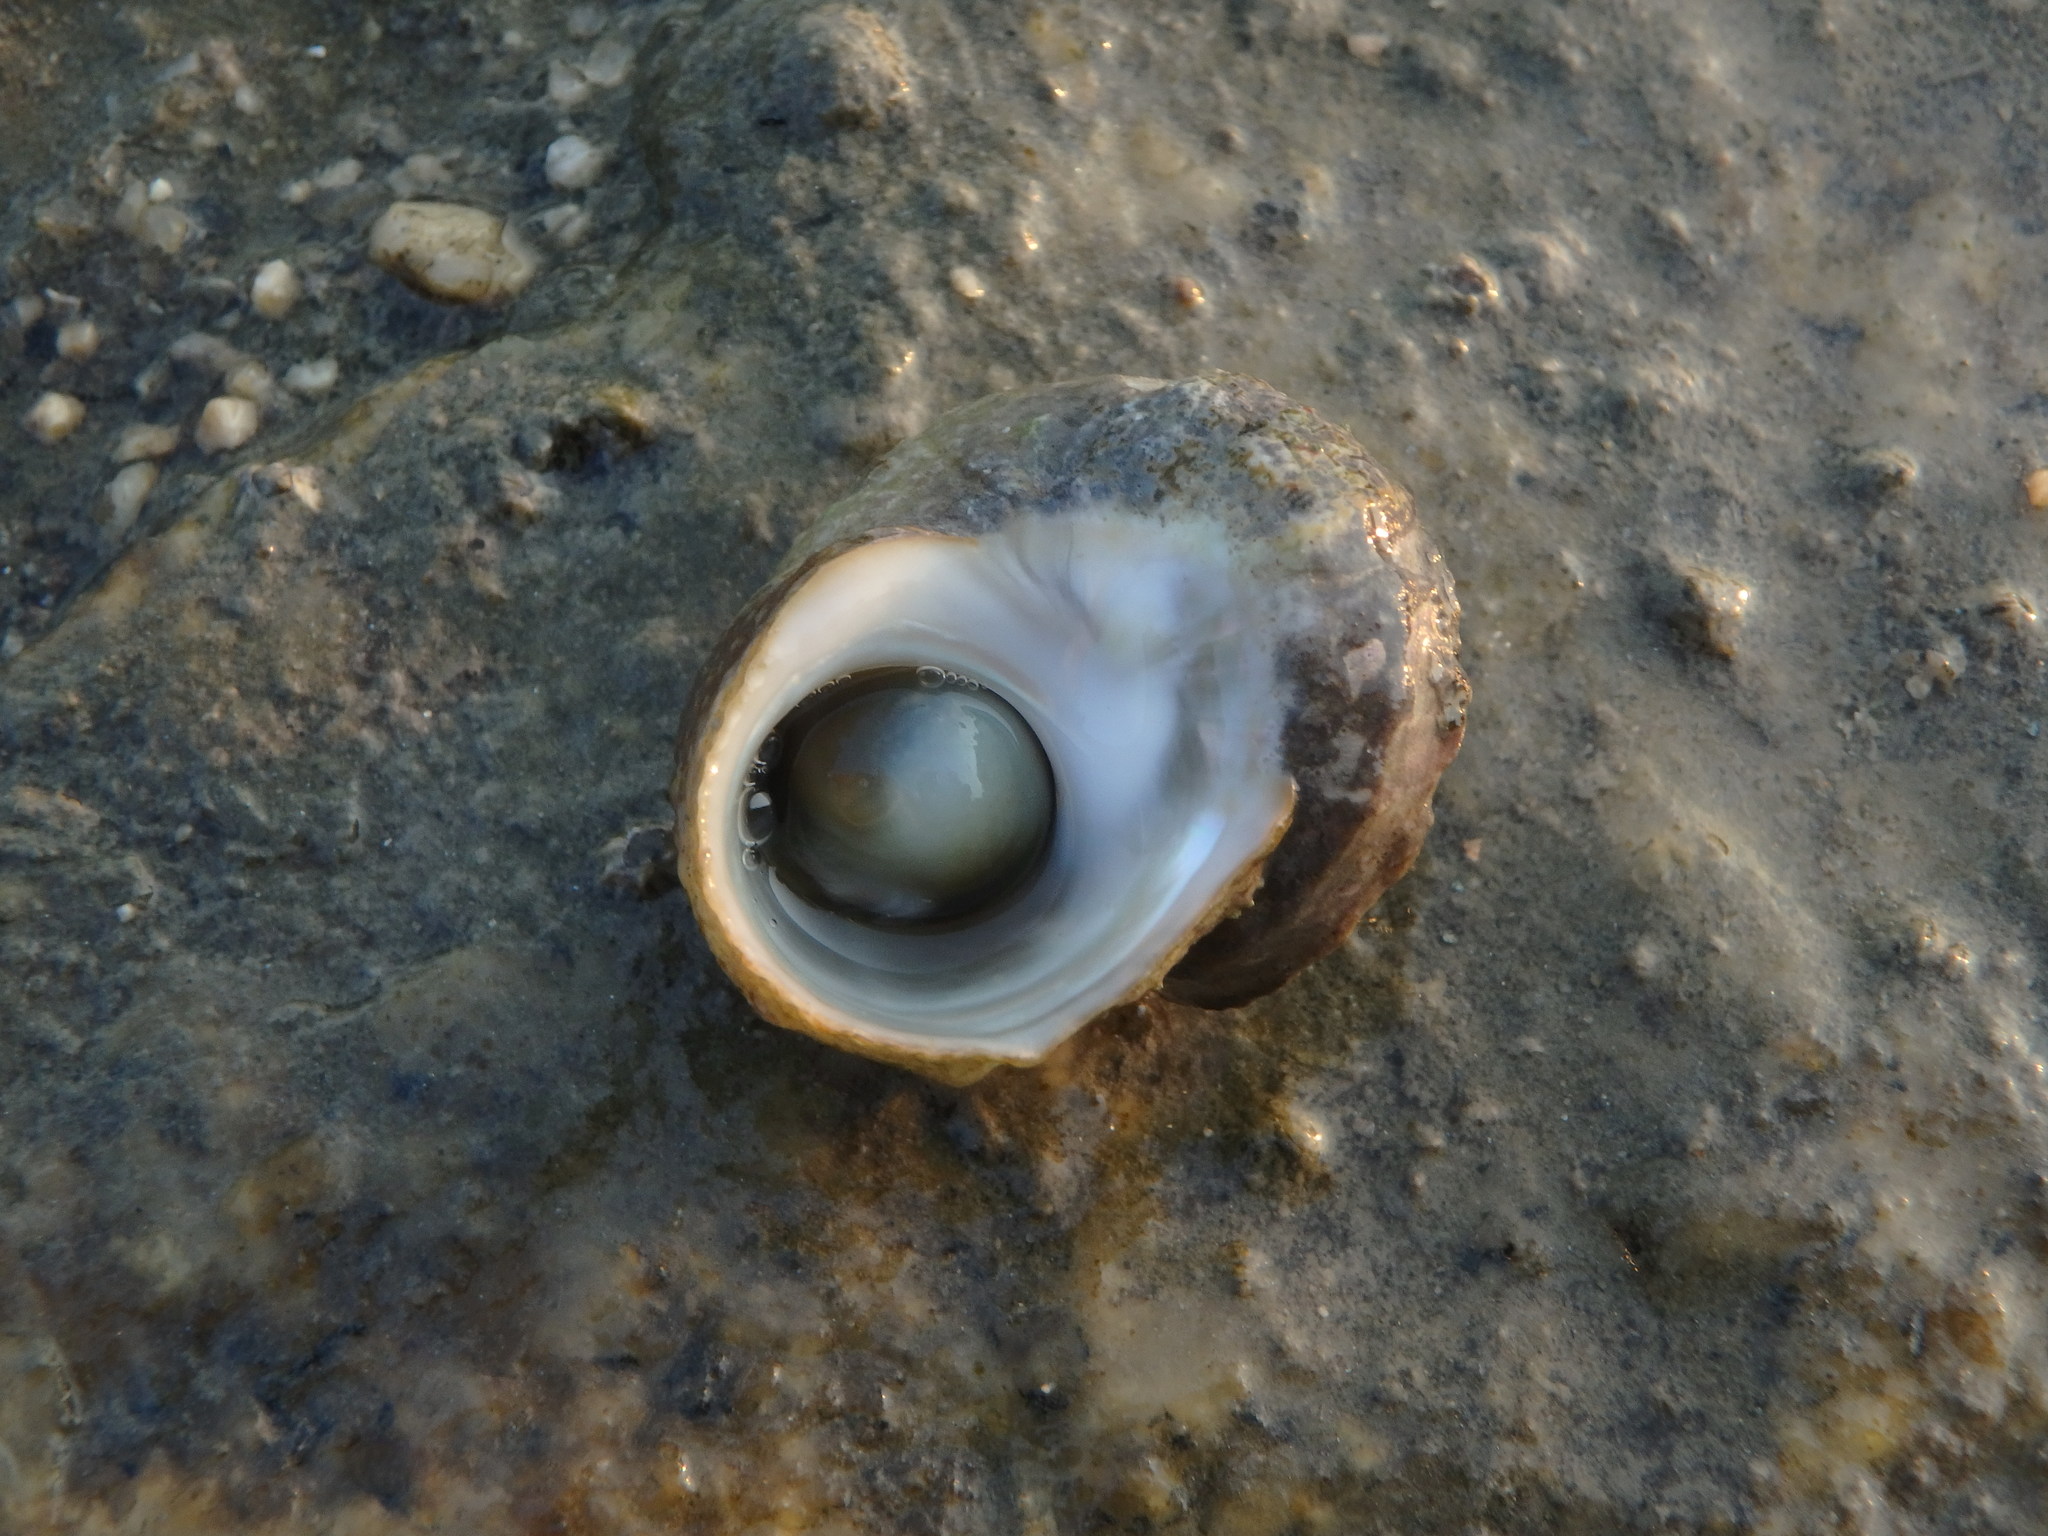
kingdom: Animalia
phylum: Mollusca
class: Gastropoda
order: Trochida
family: Turbinidae
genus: Lunella
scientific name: Lunella correensis
